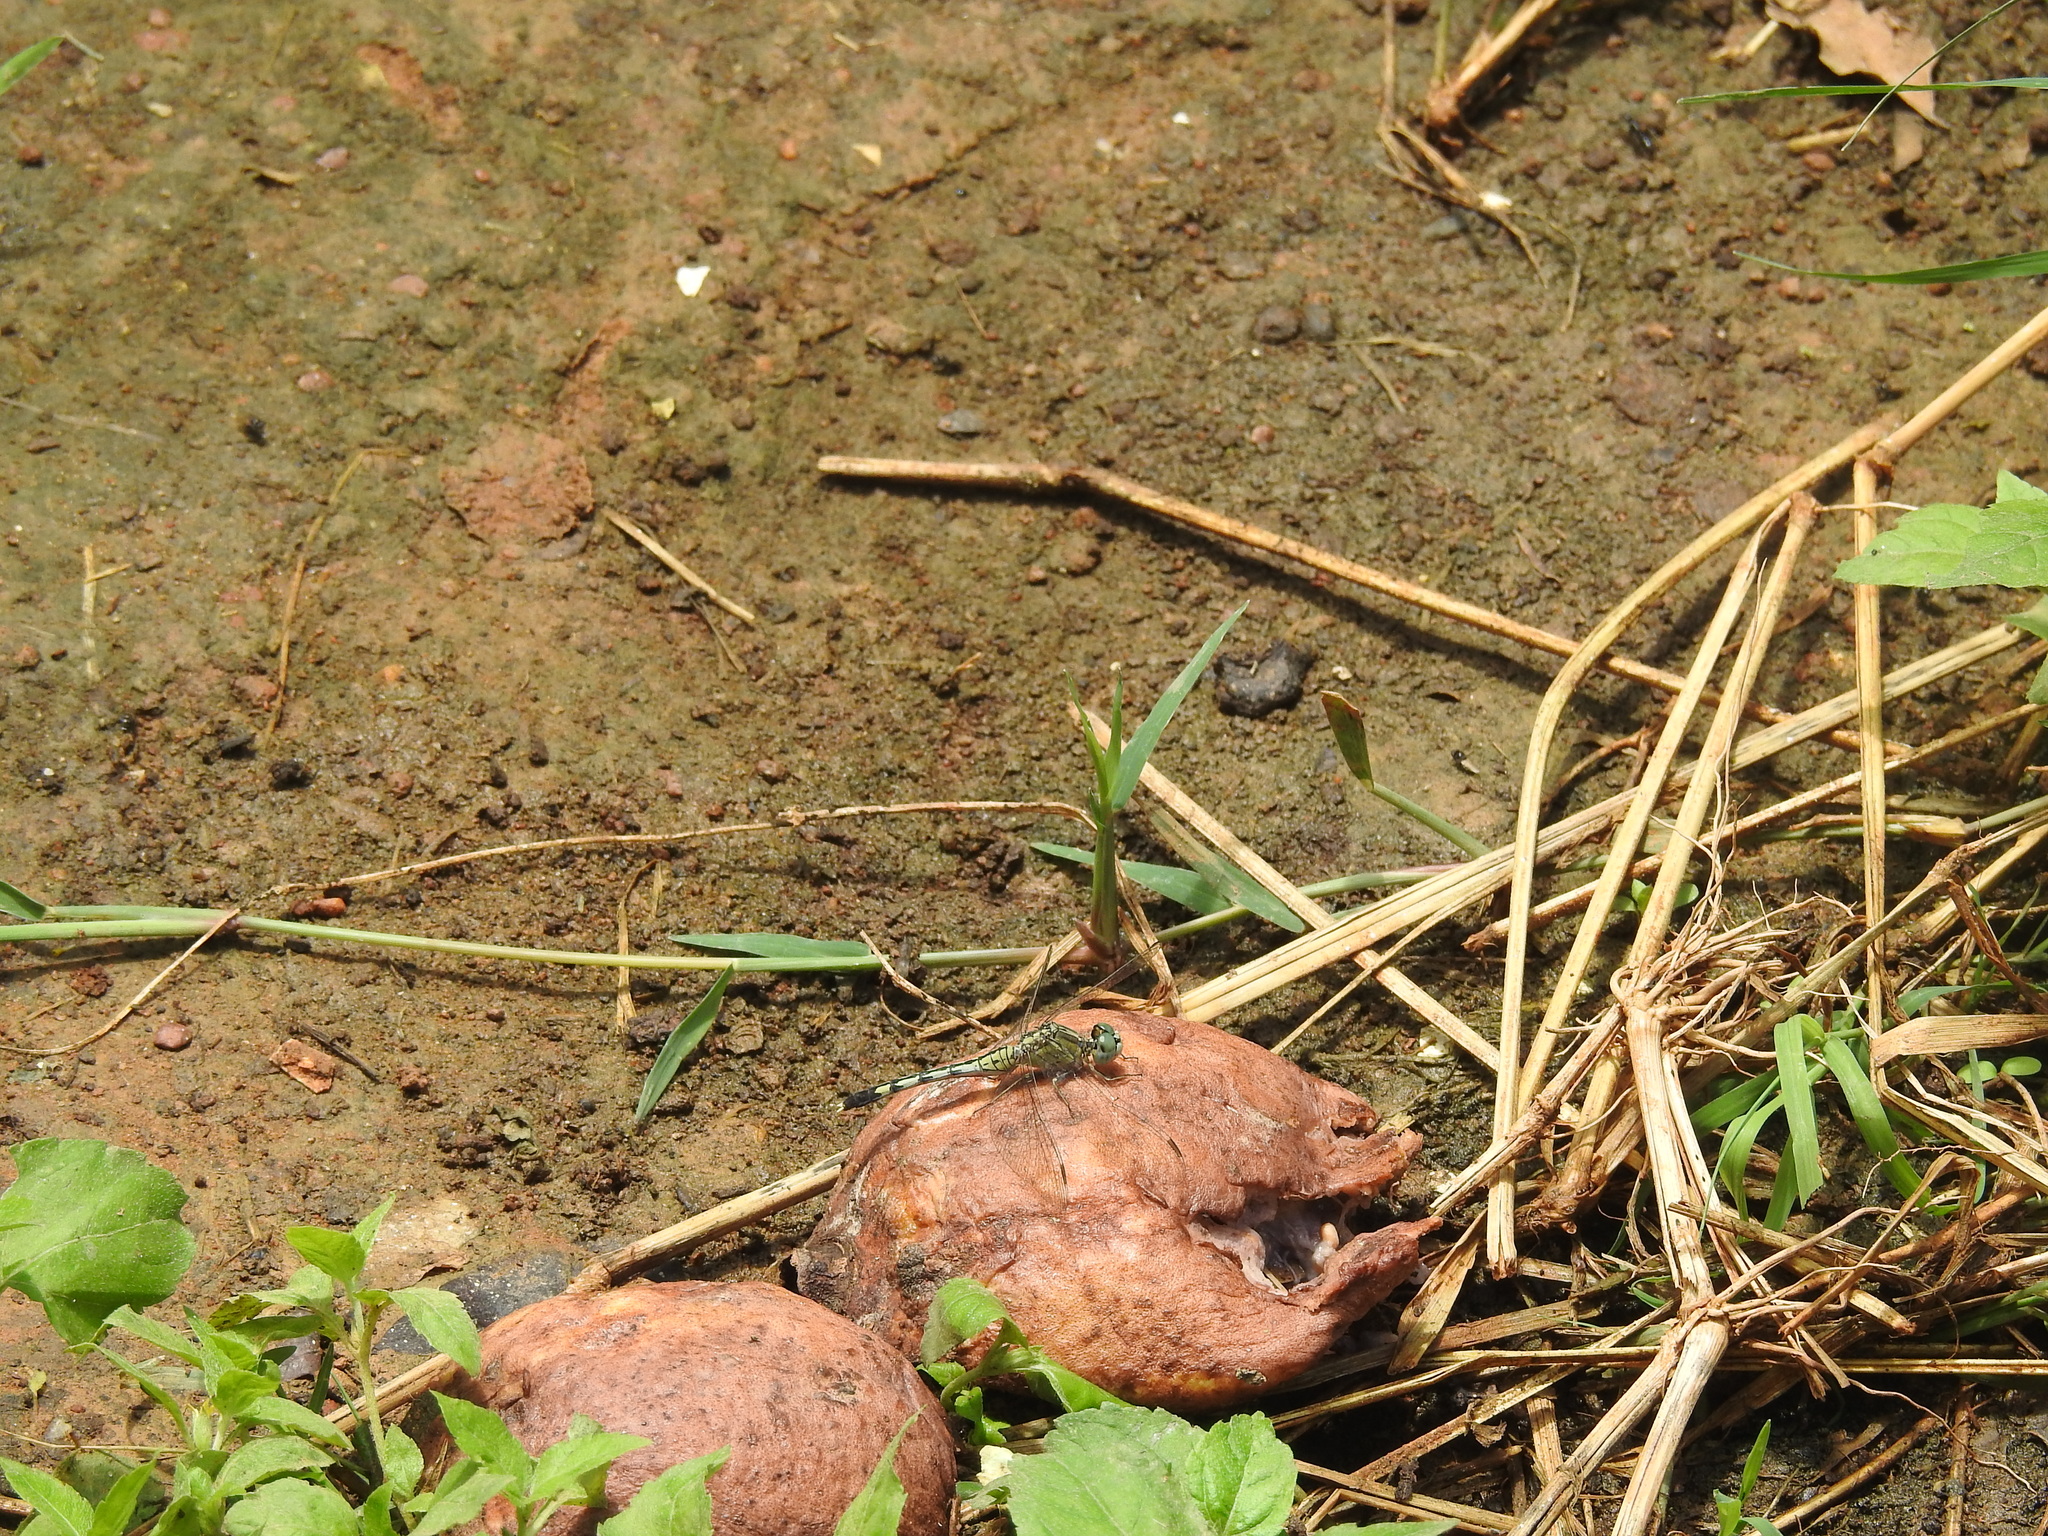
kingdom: Animalia
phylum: Arthropoda
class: Insecta
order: Odonata
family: Libellulidae
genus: Diplacodes
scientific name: Diplacodes trivialis
